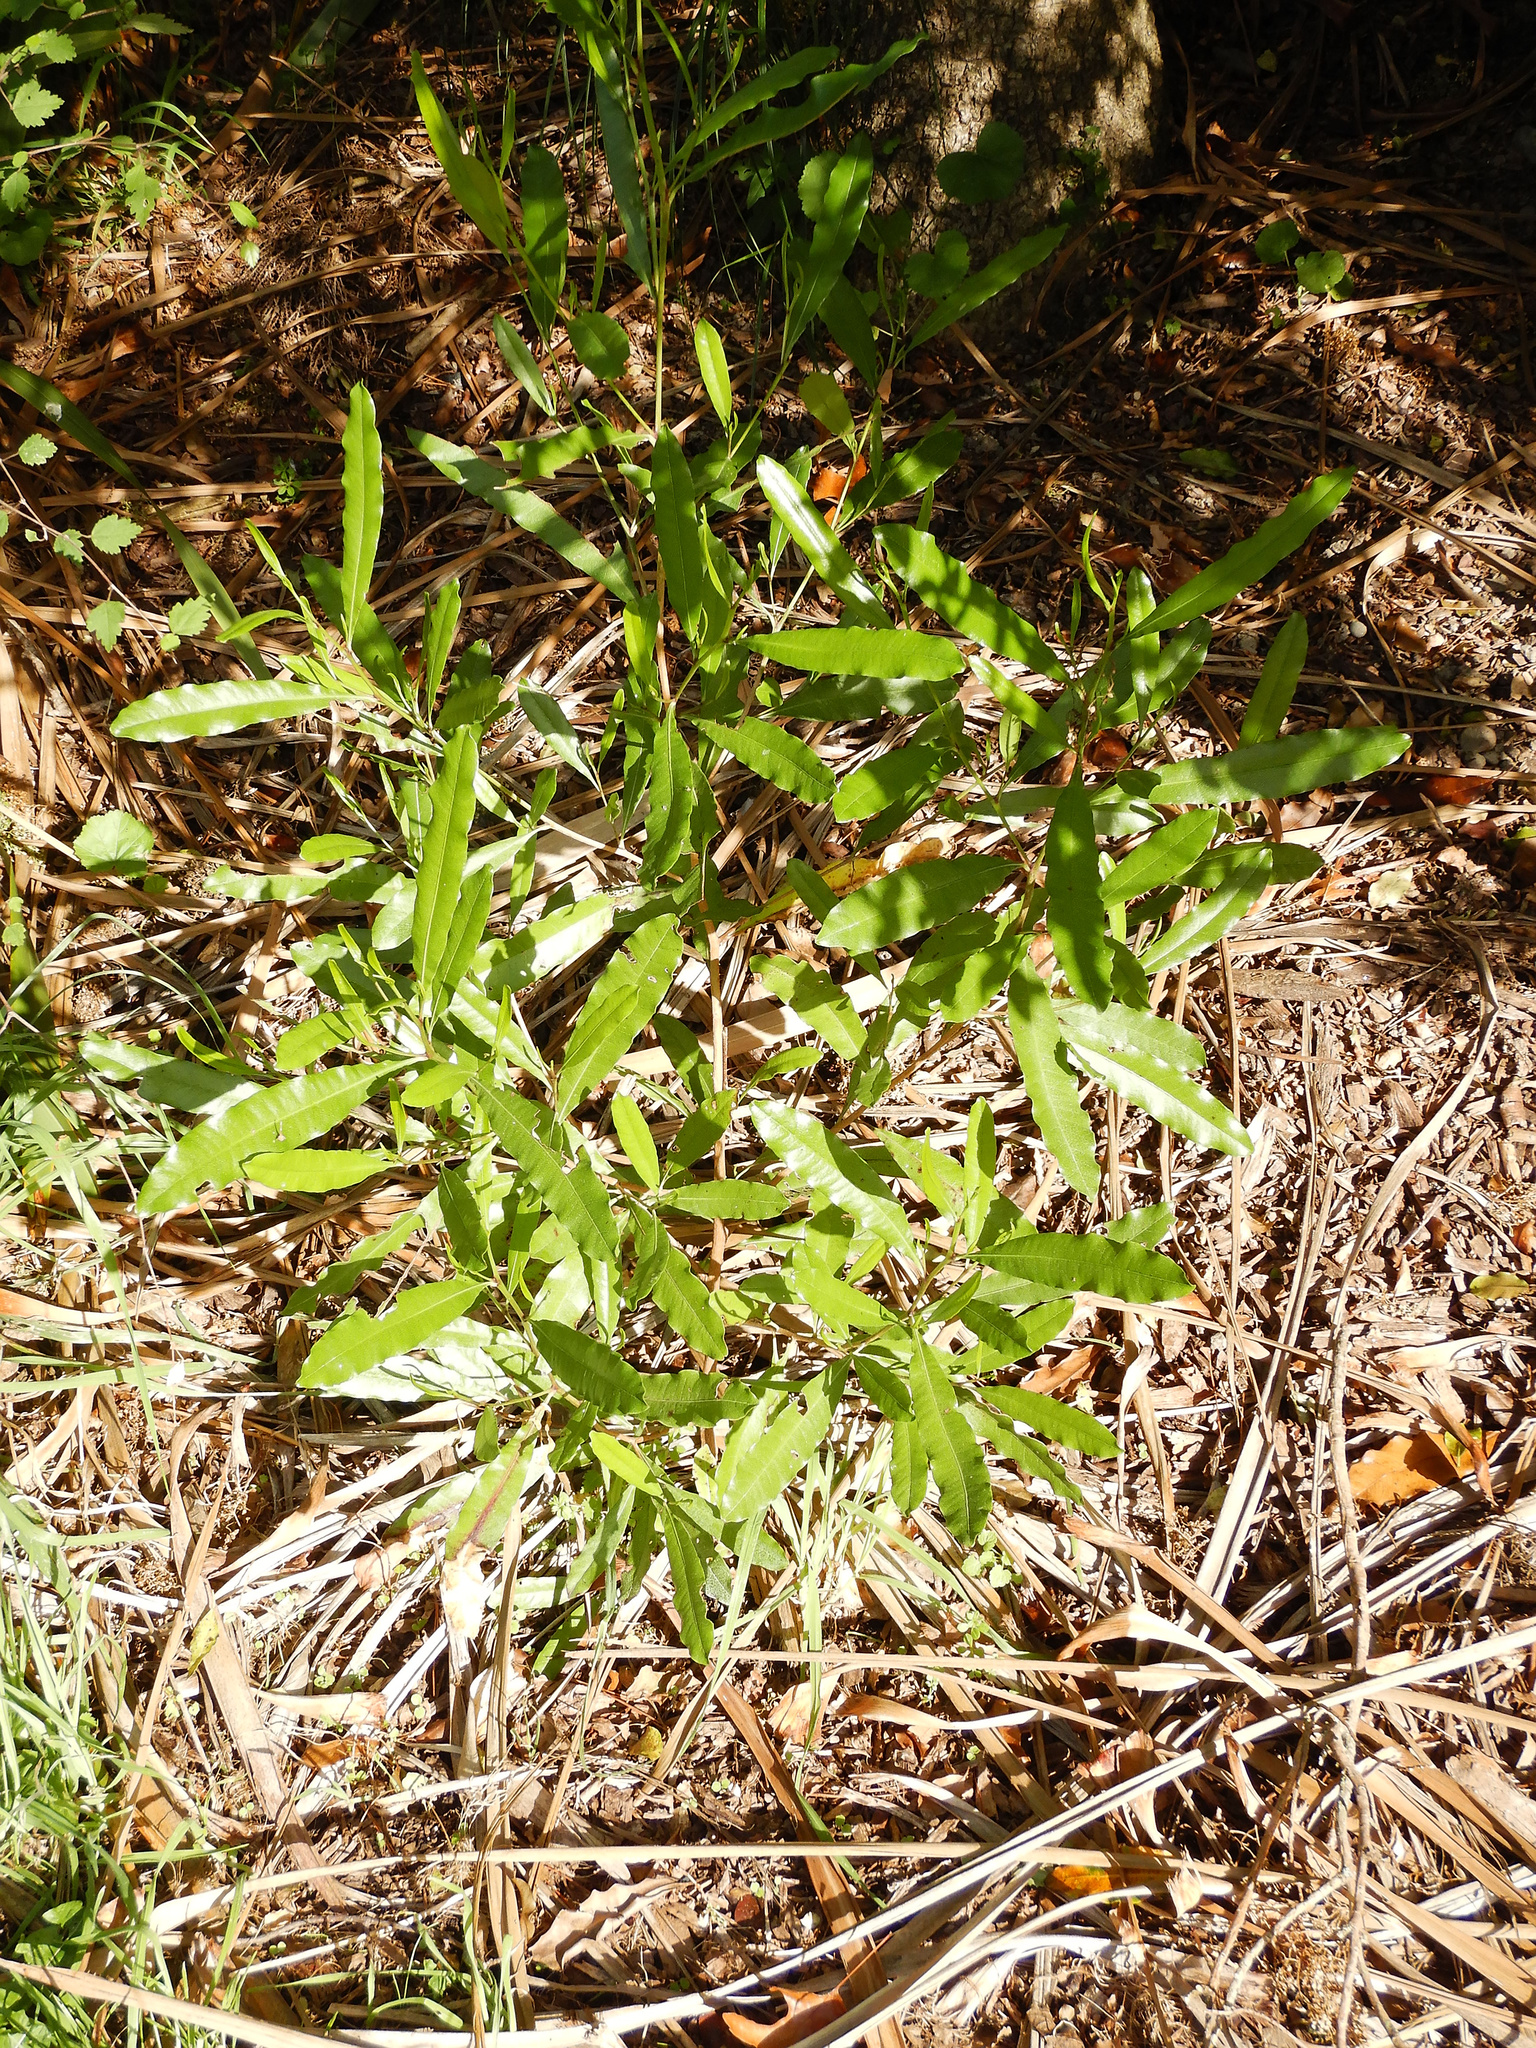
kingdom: Plantae
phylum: Tracheophyta
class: Magnoliopsida
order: Sapindales
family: Sapindaceae
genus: Dodonaea
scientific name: Dodonaea viscosa
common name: Hopbush
